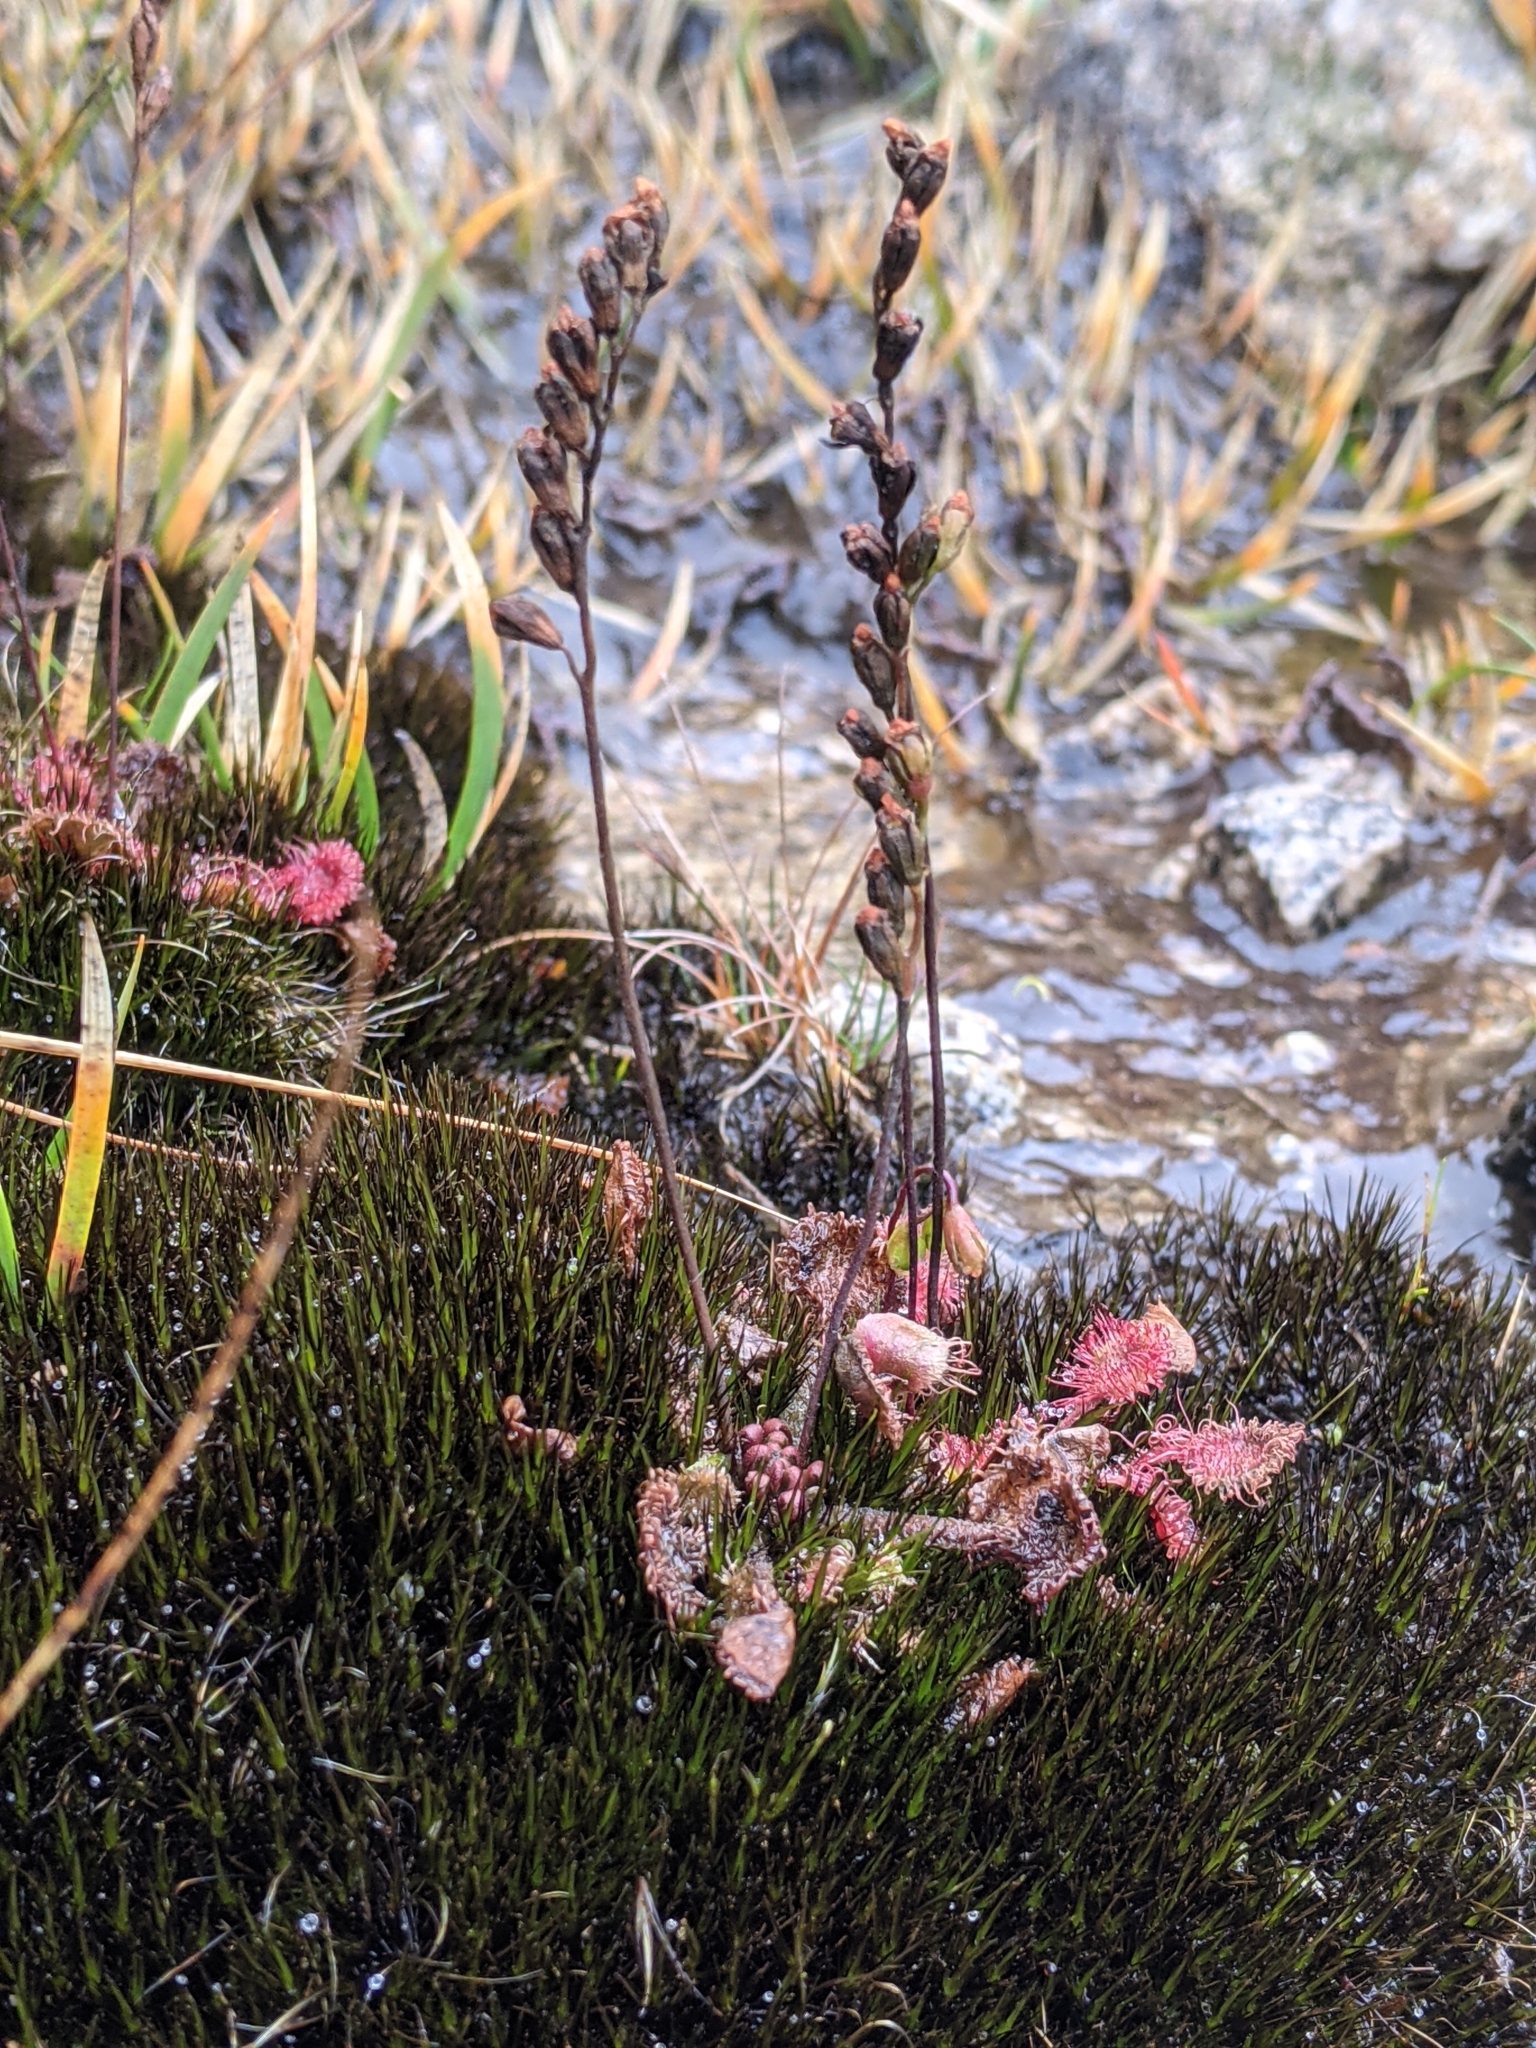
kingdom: Plantae
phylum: Tracheophyta
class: Magnoliopsida
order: Caryophyllales
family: Droseraceae
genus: Drosera
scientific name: Drosera rotundifolia
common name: Round-leaved sundew
